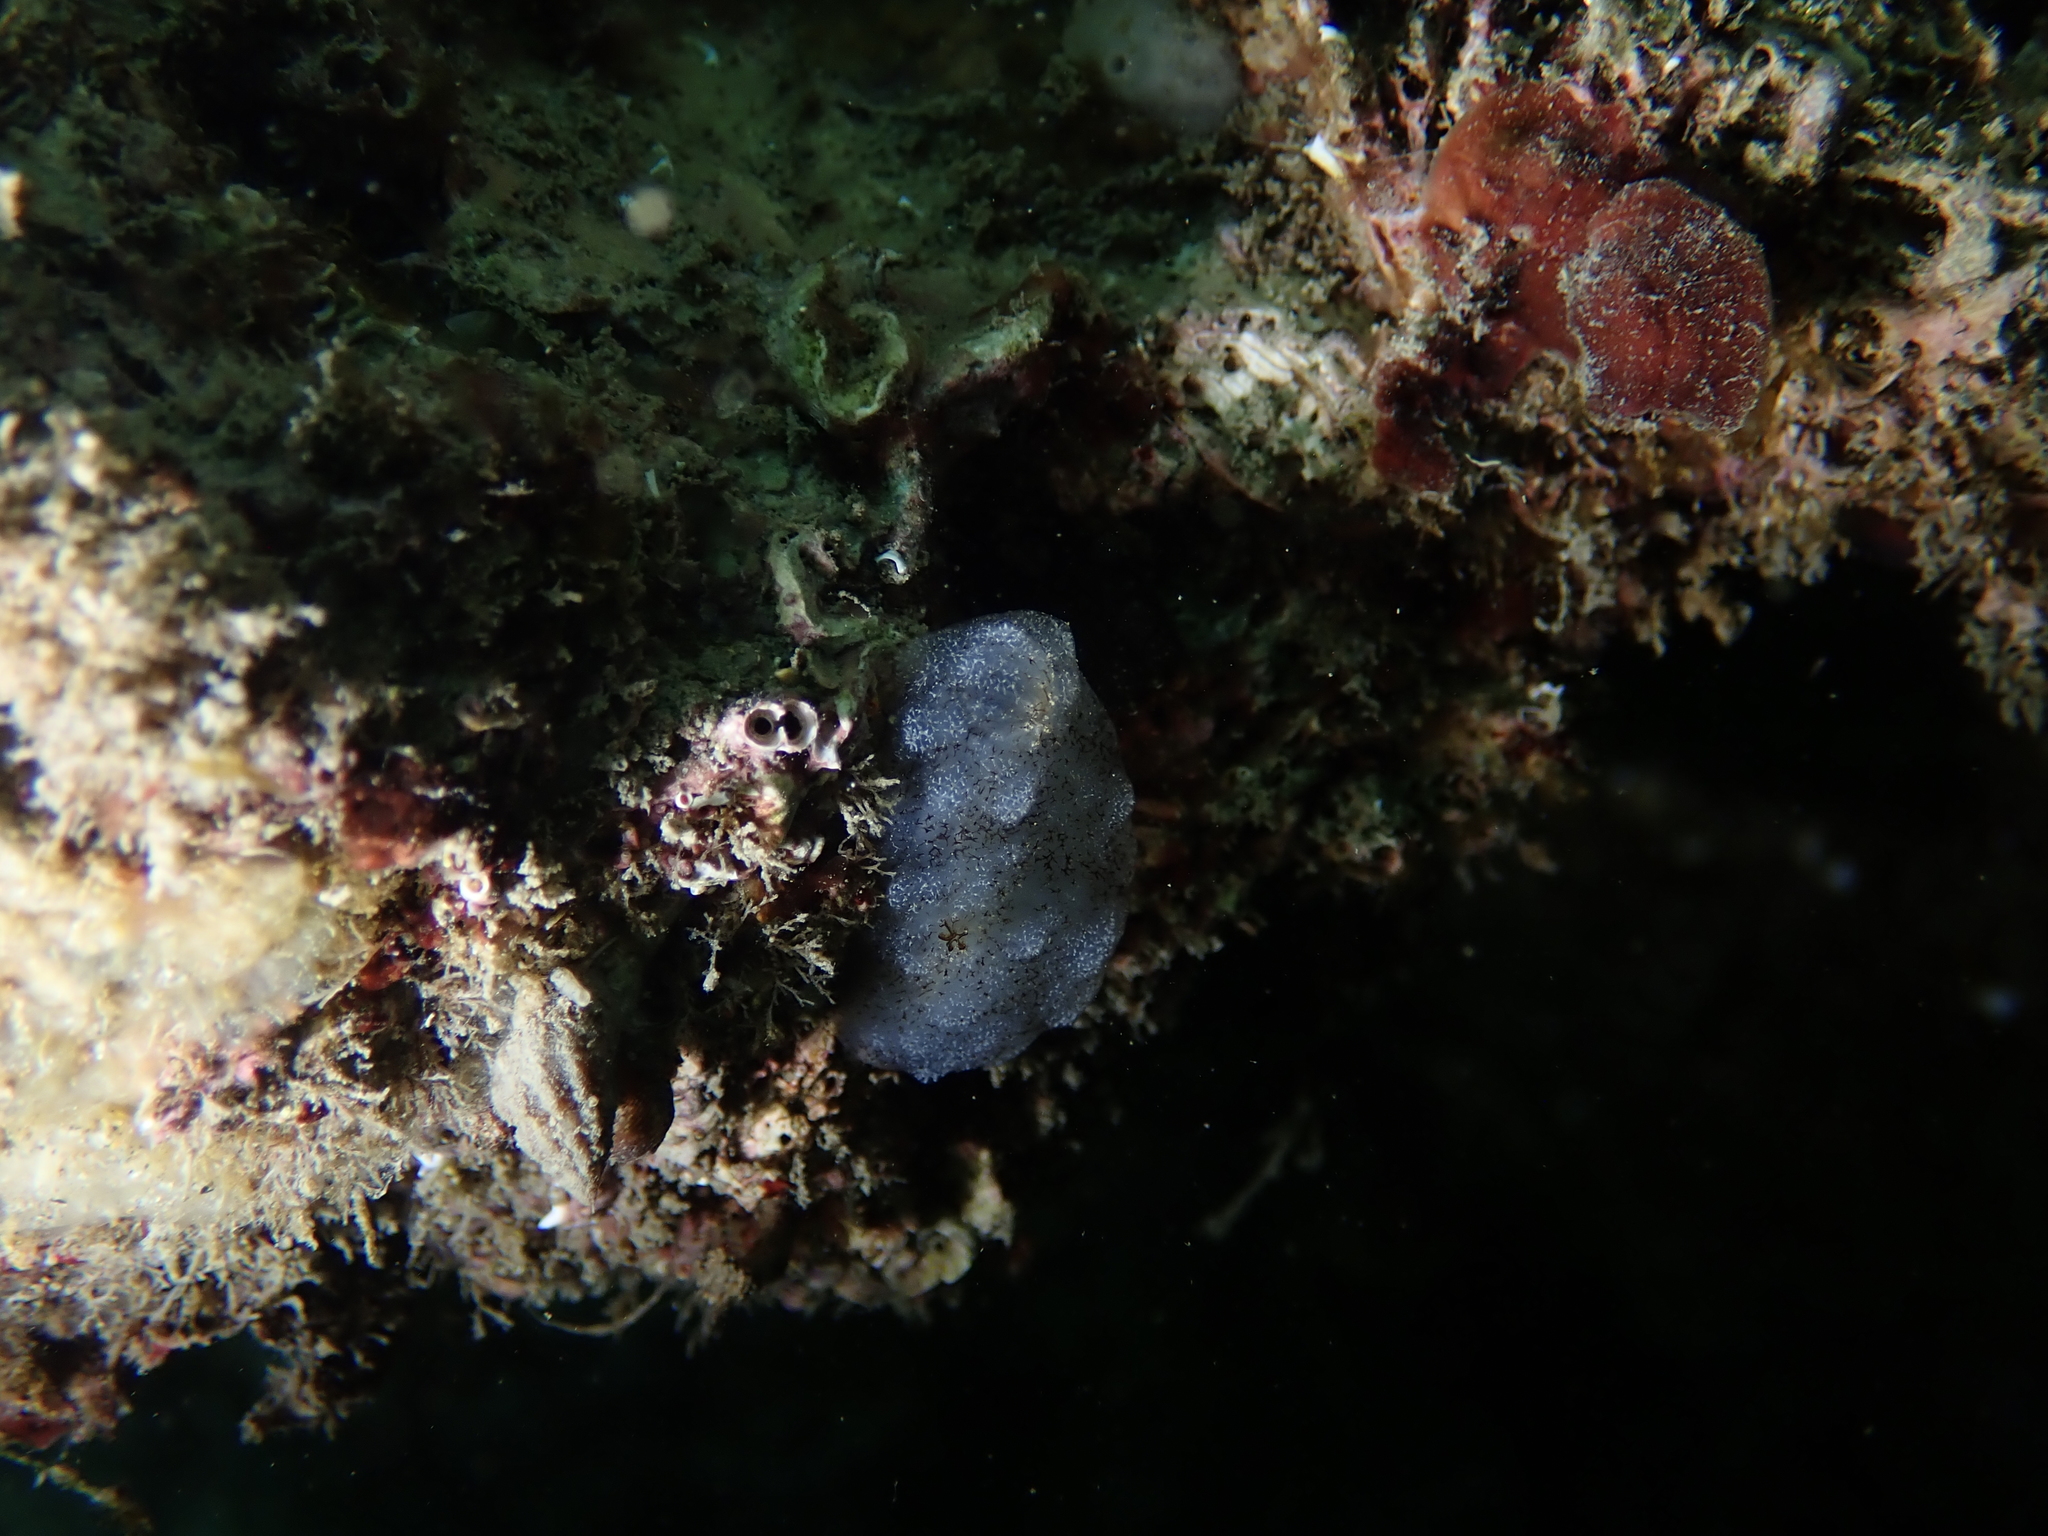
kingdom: Animalia
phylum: Chordata
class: Ascidiacea
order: Phlebobranchia
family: Ascidiidae
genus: Phallusia
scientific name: Phallusia mammillata
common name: Neptune's heart sea squirt
